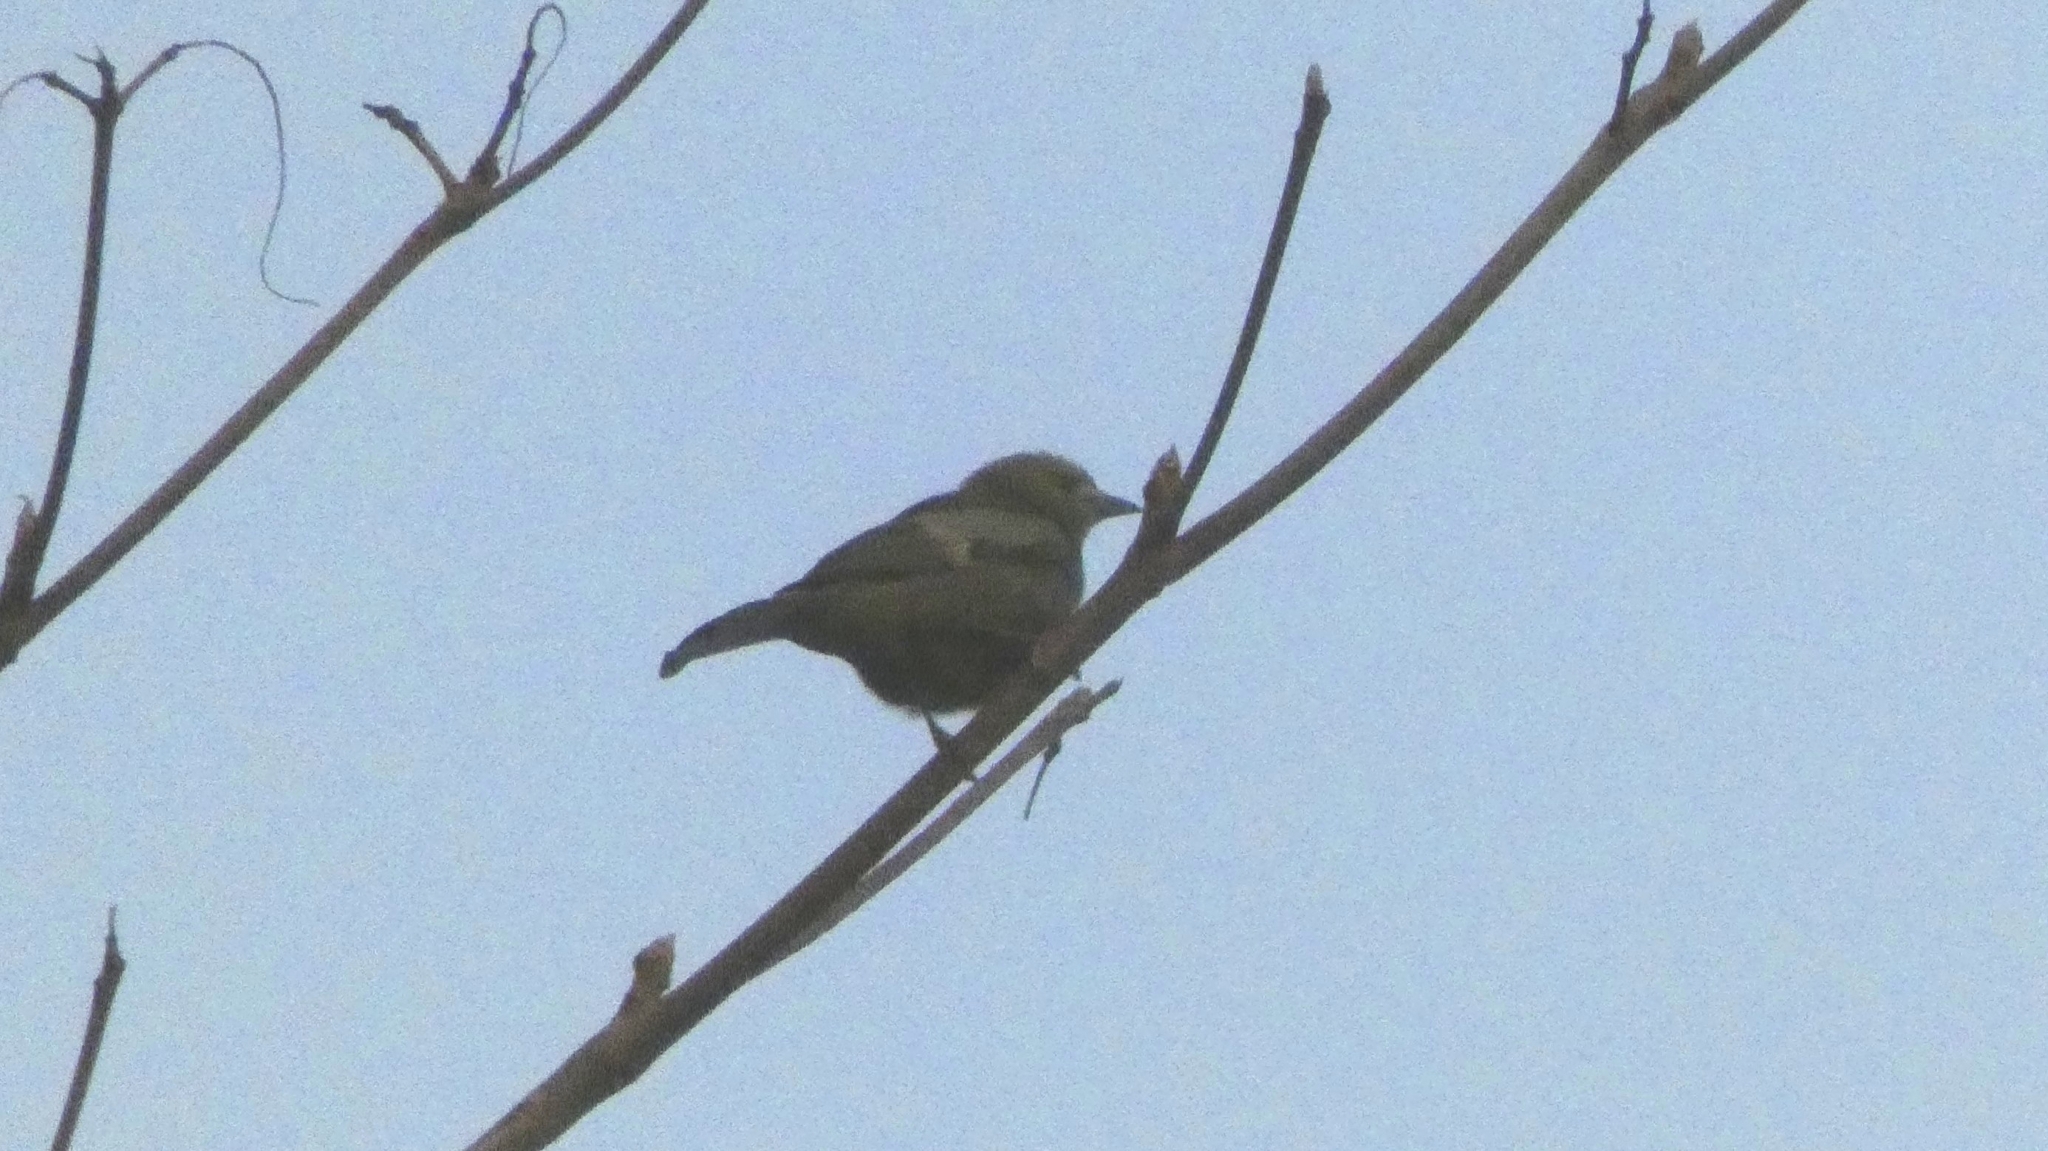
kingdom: Animalia
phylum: Chordata
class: Aves
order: Passeriformes
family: Thraupidae
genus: Thraupis
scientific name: Thraupis palmarum
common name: Palm tanager
